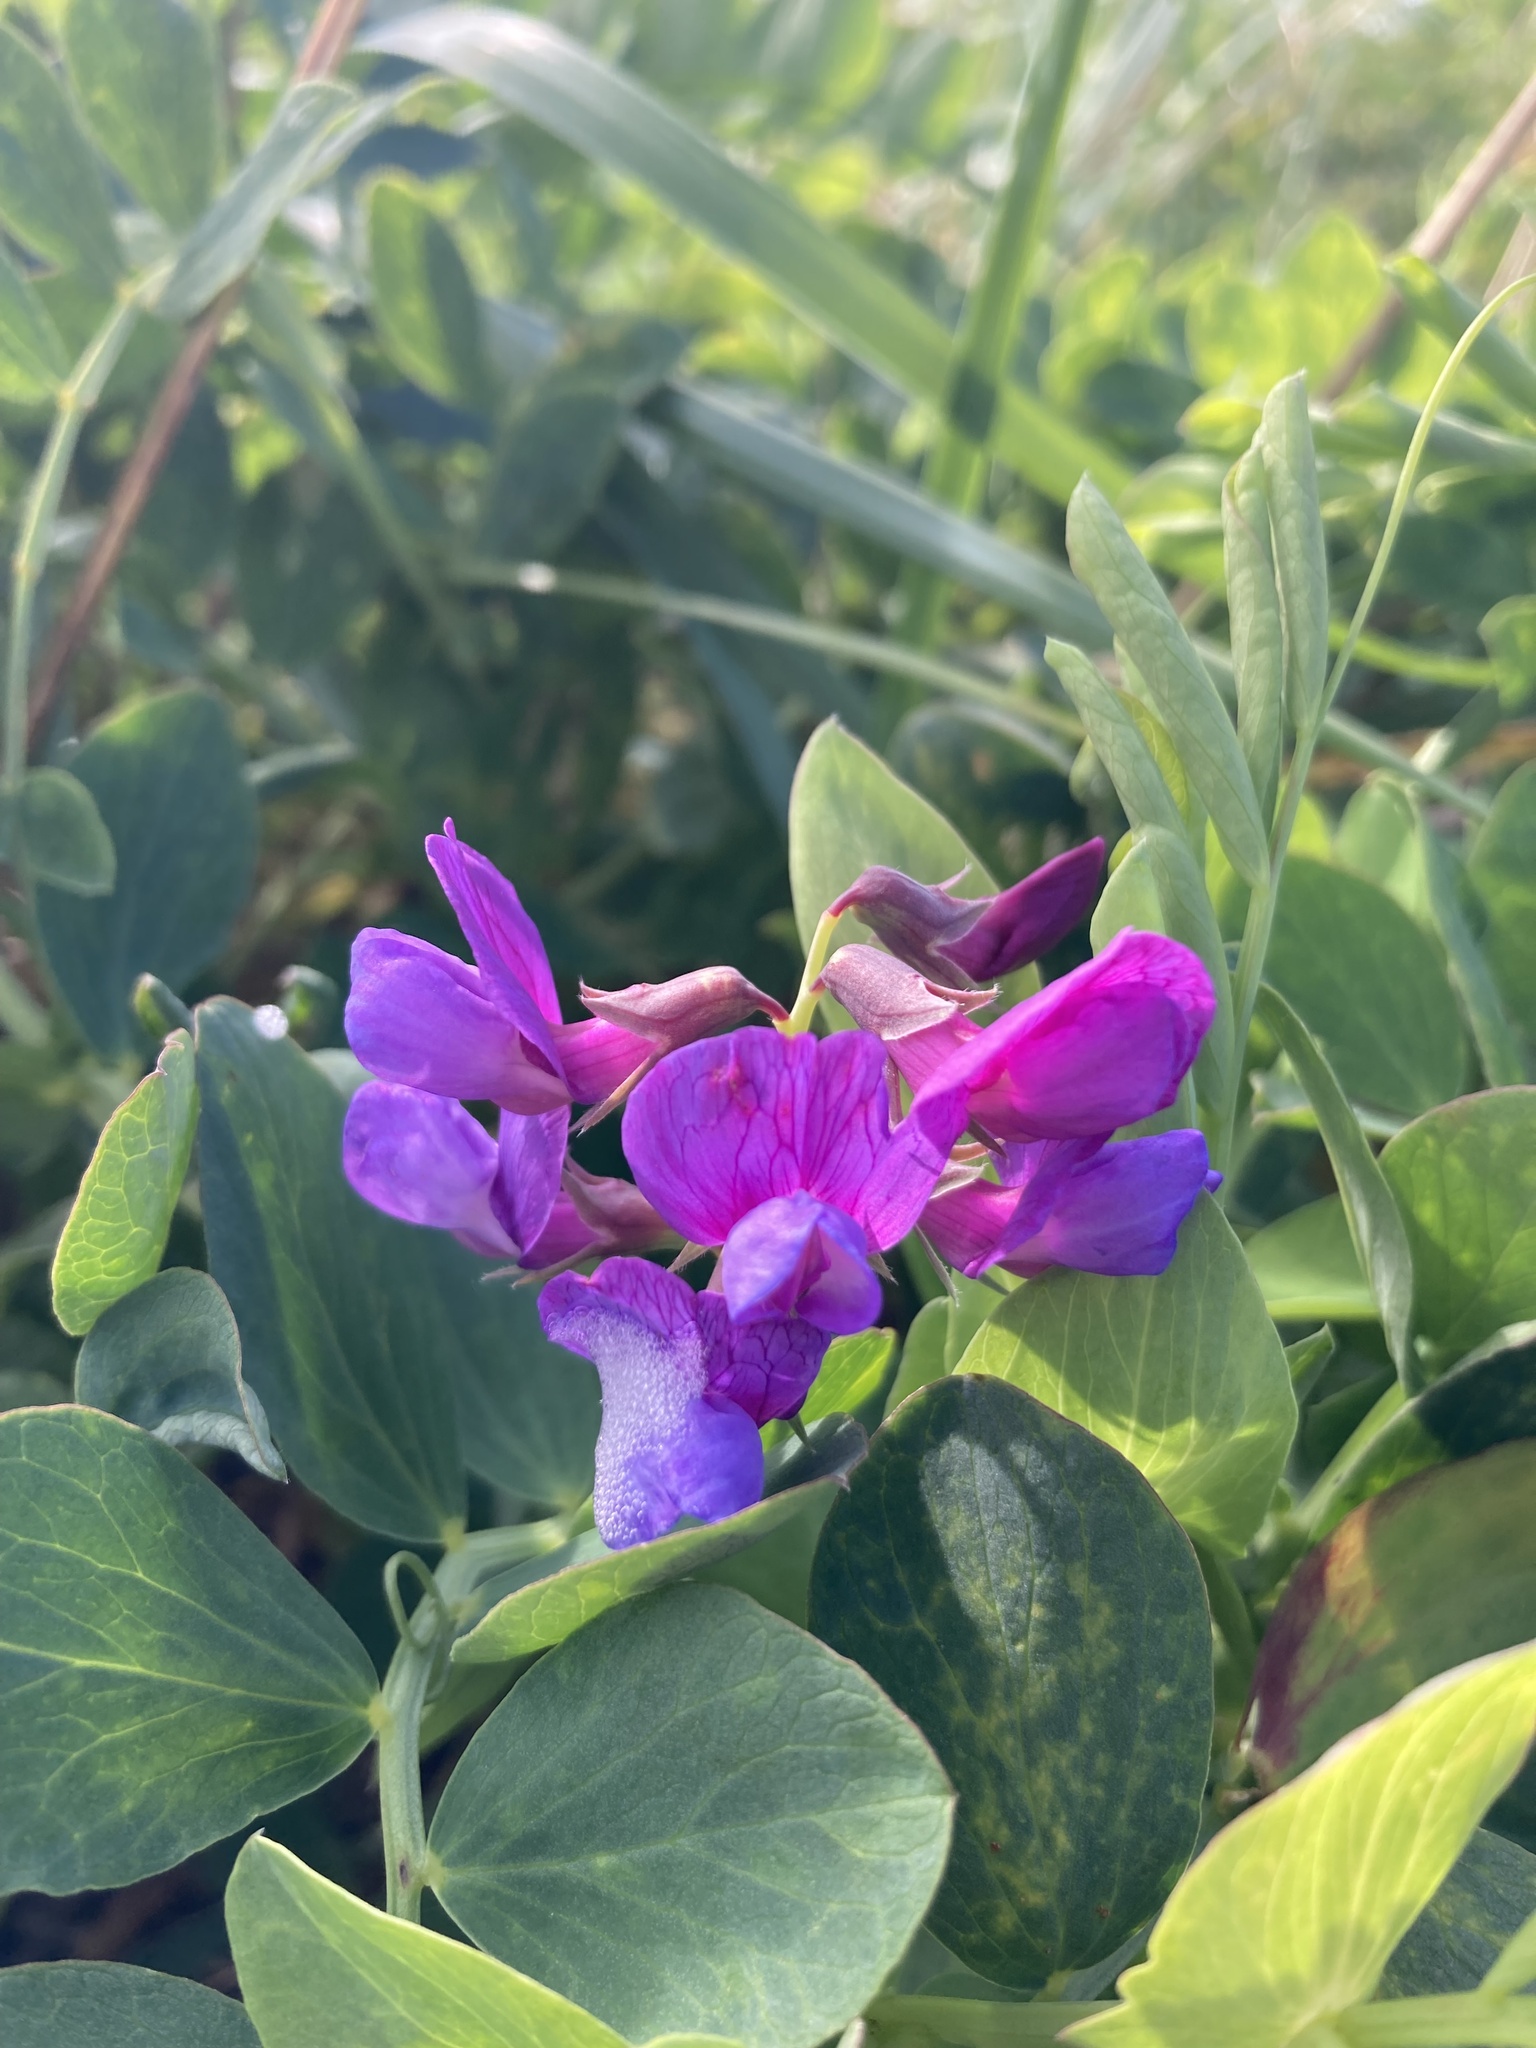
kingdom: Plantae
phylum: Tracheophyta
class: Magnoliopsida
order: Fabales
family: Fabaceae
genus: Lathyrus
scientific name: Lathyrus japonicus
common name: Sea pea
